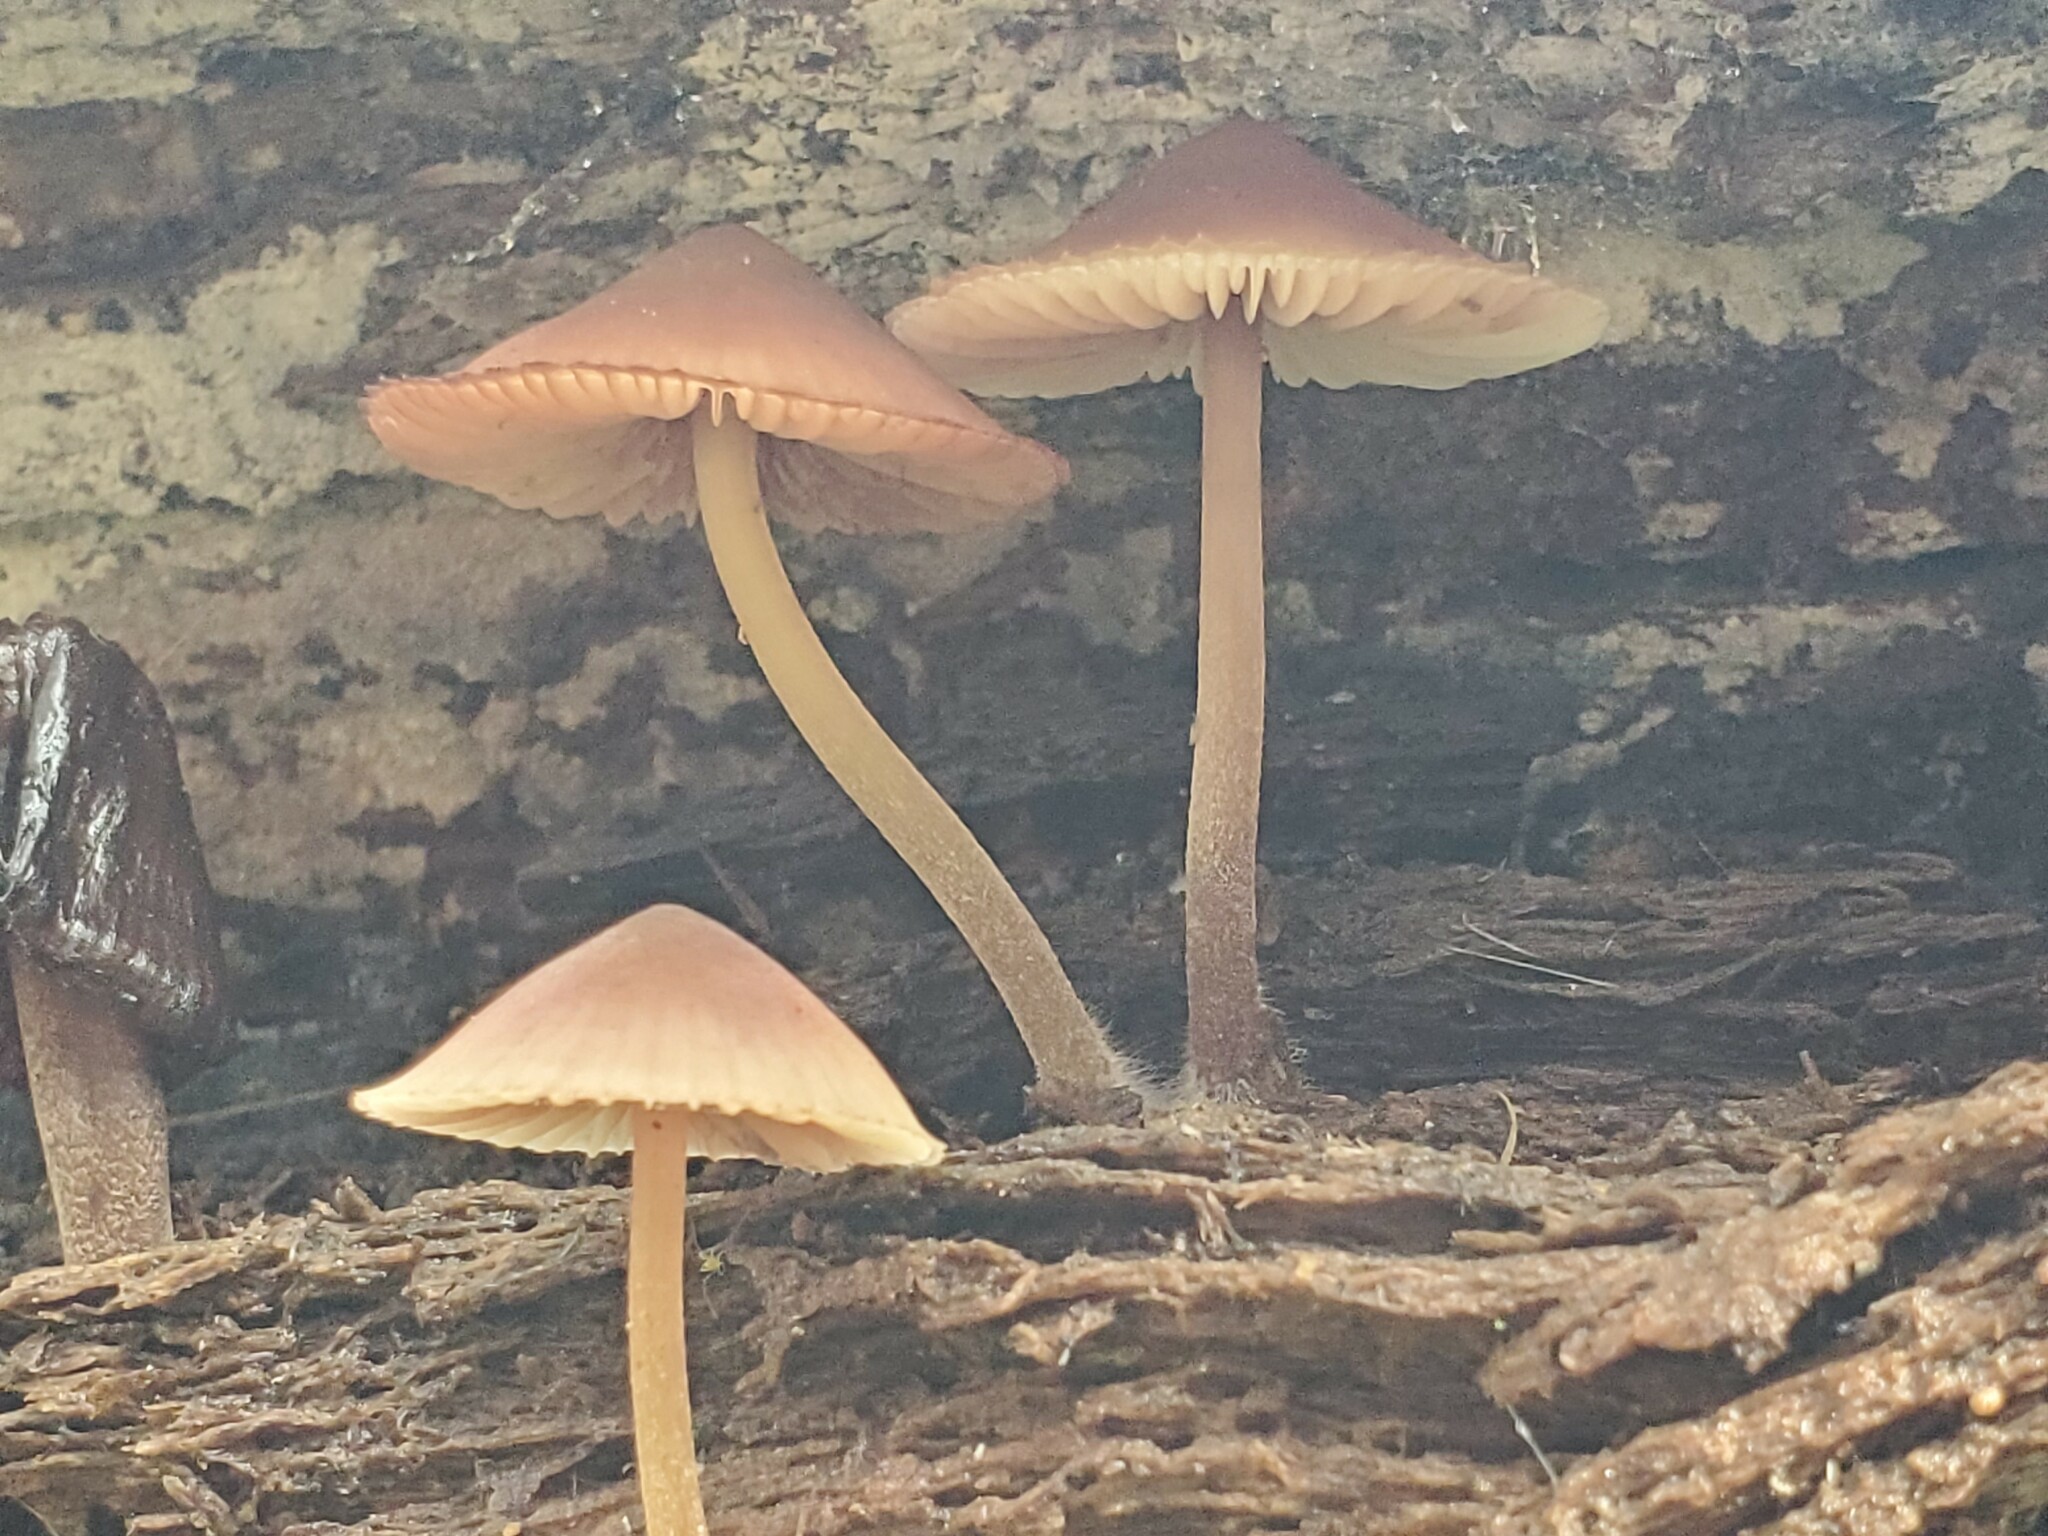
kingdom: Fungi
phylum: Basidiomycota
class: Agaricomycetes
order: Agaricales
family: Mycenaceae
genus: Mycena
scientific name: Mycena haematopus
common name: Burgundydrop bonnet
